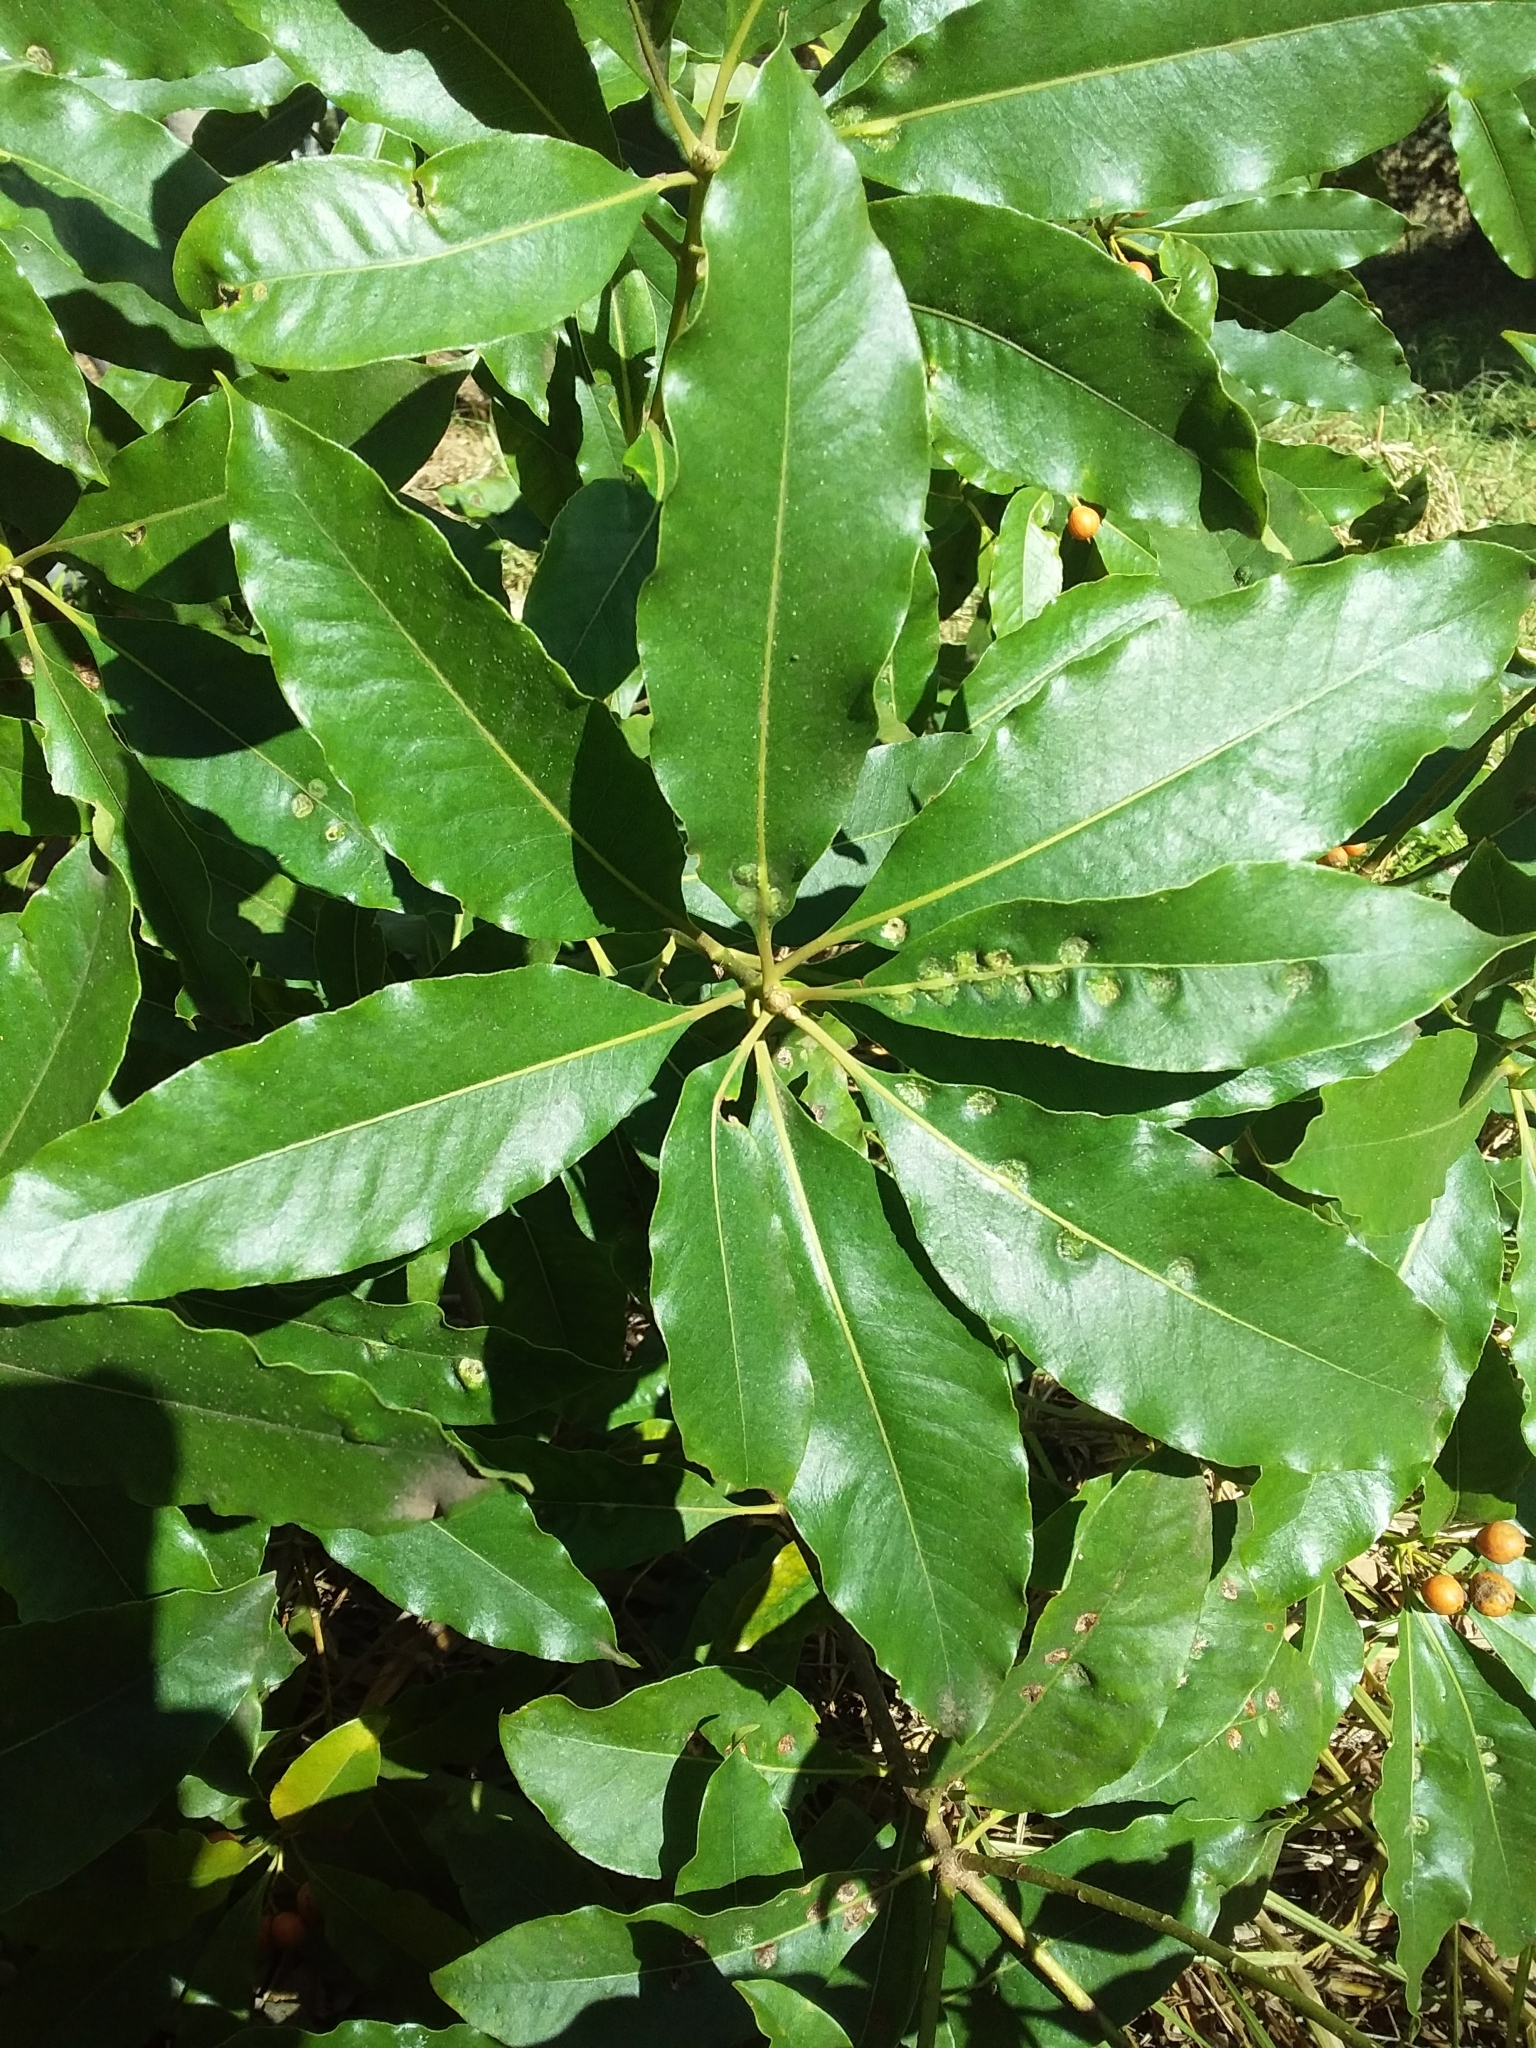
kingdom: Plantae
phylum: Tracheophyta
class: Magnoliopsida
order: Apiales
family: Pittosporaceae
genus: Pittosporum
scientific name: Pittosporum undulatum
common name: Australian cheesewood
